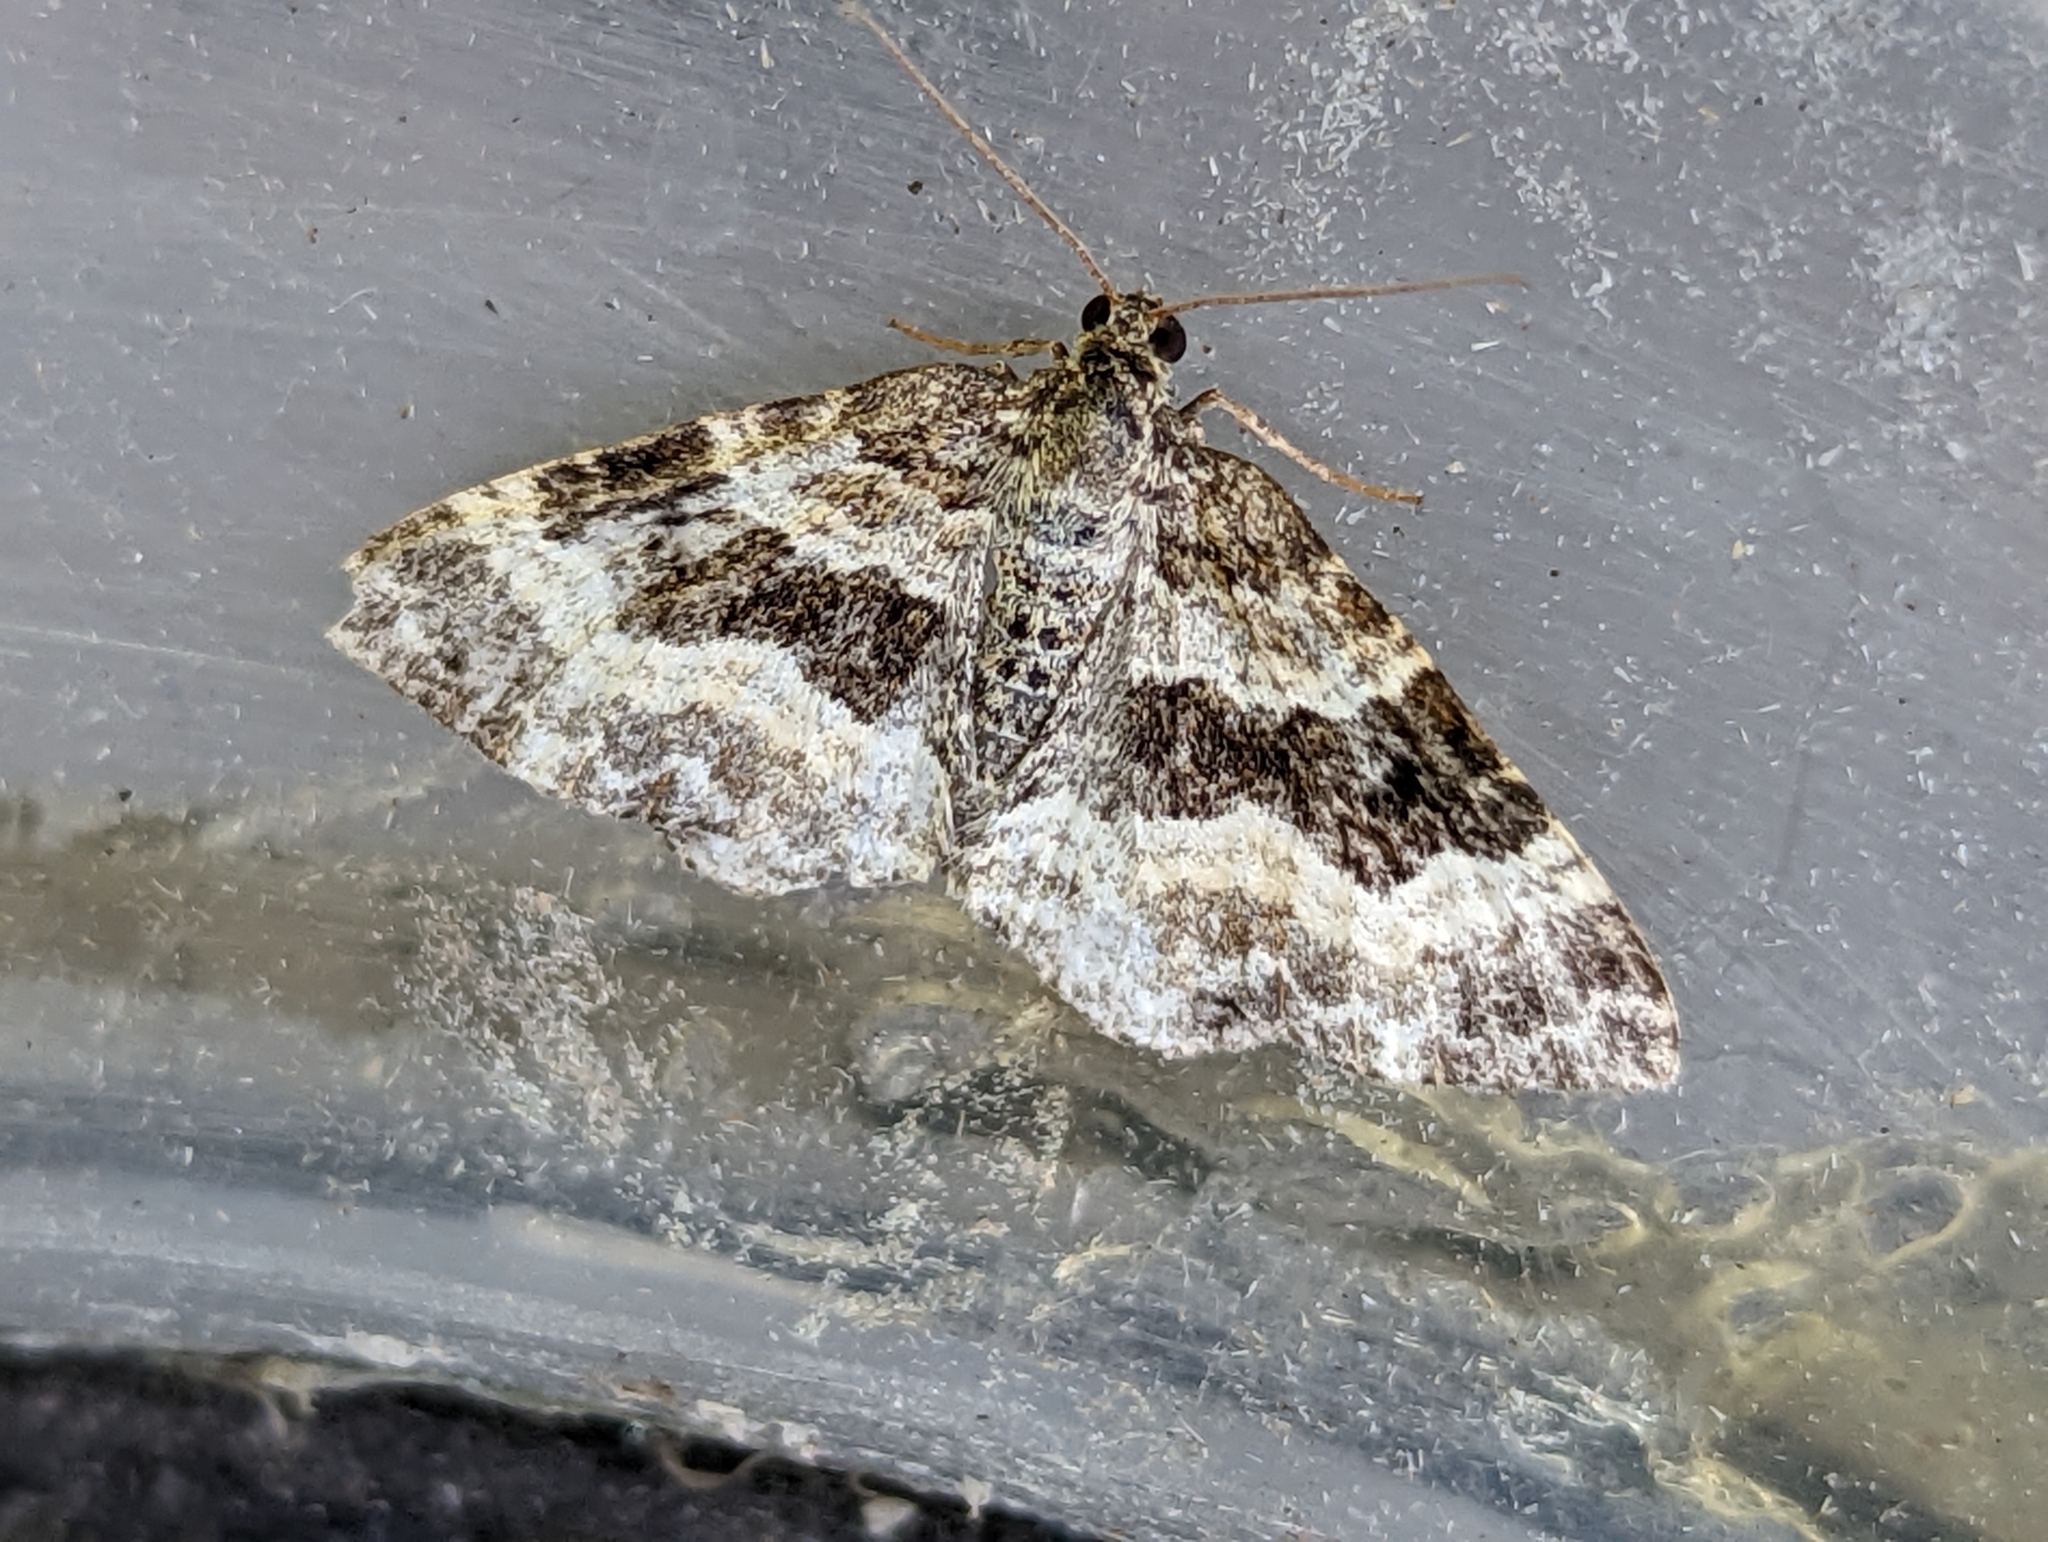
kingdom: Animalia
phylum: Arthropoda
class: Insecta
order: Lepidoptera
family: Geometridae
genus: Epirrhoe
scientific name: Epirrhoe alternata
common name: Common carpet
